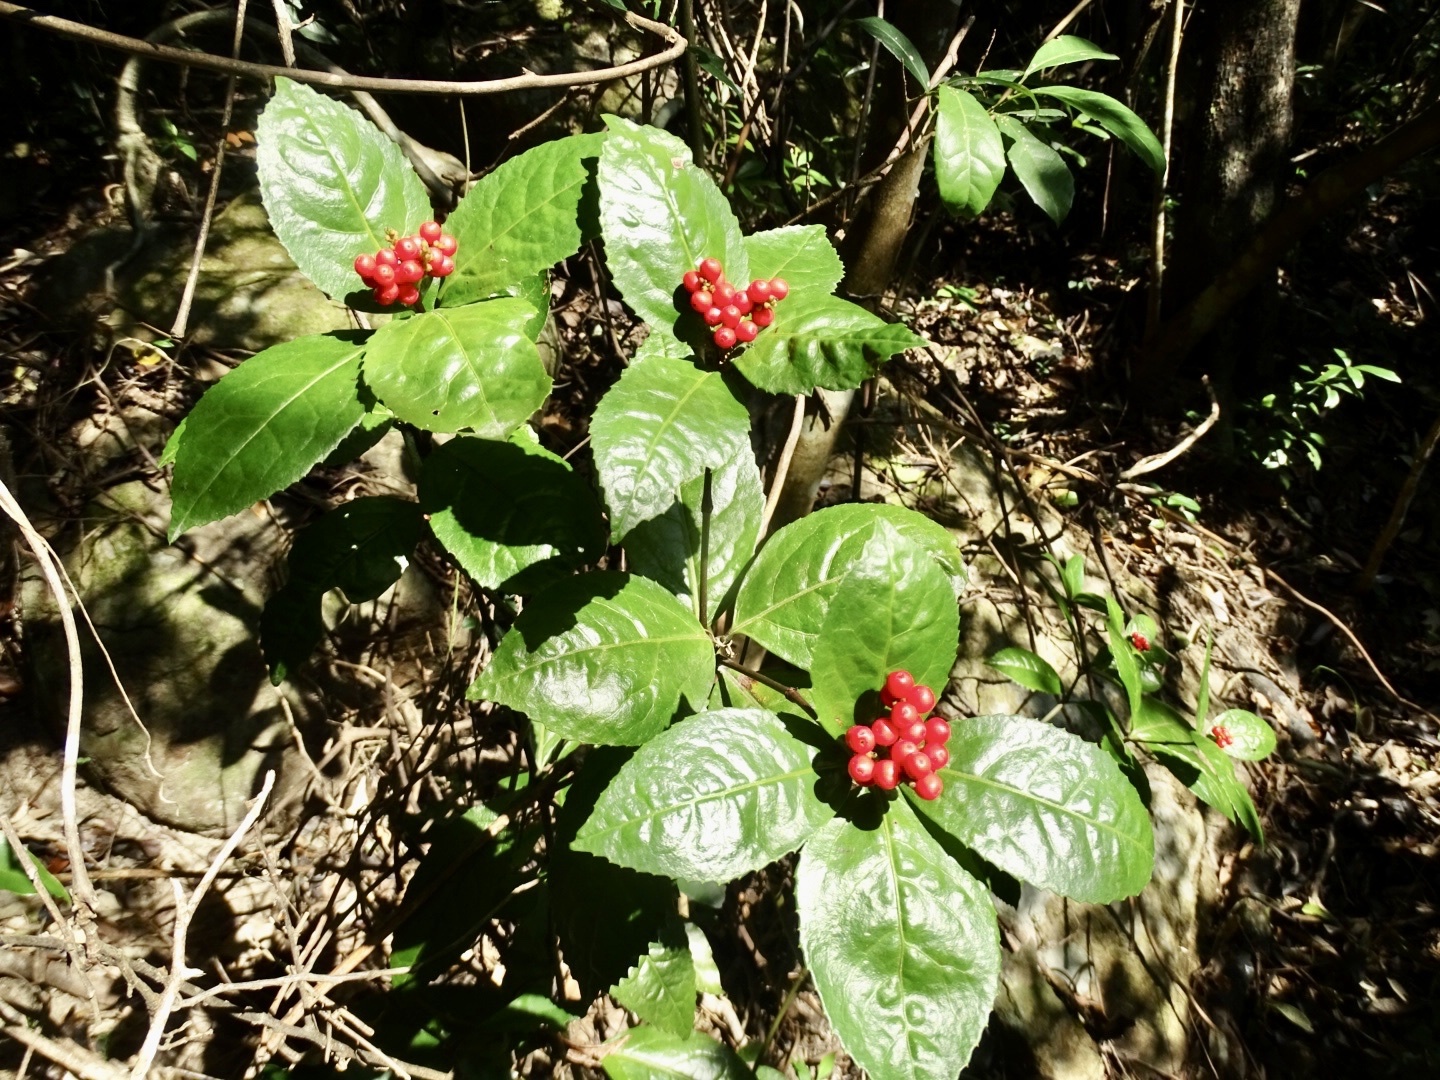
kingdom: Plantae
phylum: Tracheophyta
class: Magnoliopsida
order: Chloranthales
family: Chloranthaceae
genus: Sarcandra
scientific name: Sarcandra glabra
